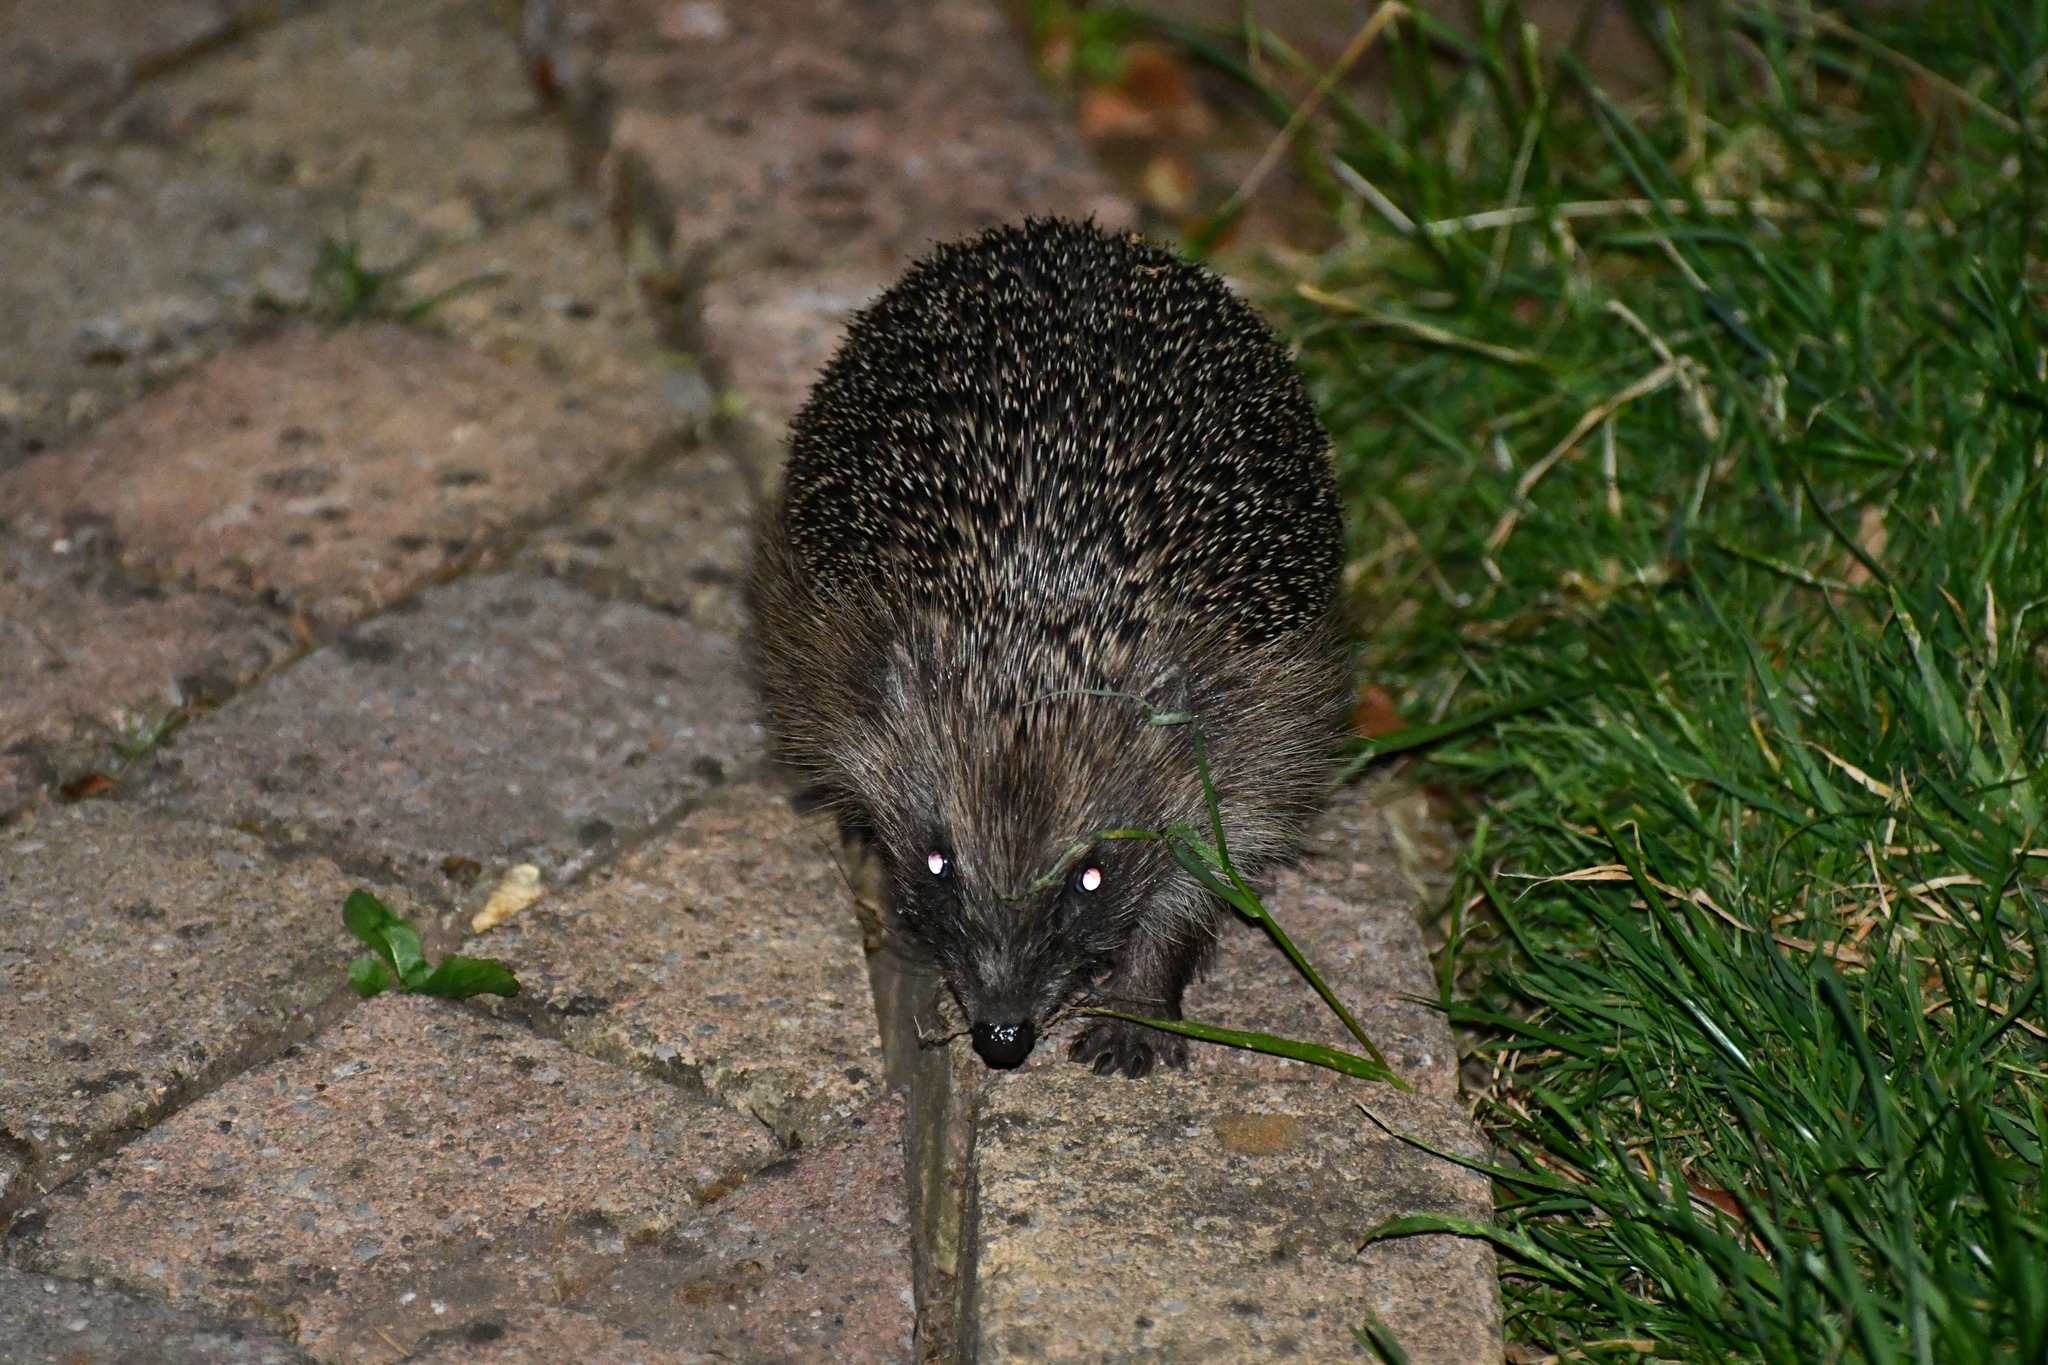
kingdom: Animalia
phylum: Chordata
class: Mammalia
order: Erinaceomorpha
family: Erinaceidae
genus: Erinaceus
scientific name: Erinaceus europaeus
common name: West european hedgehog
